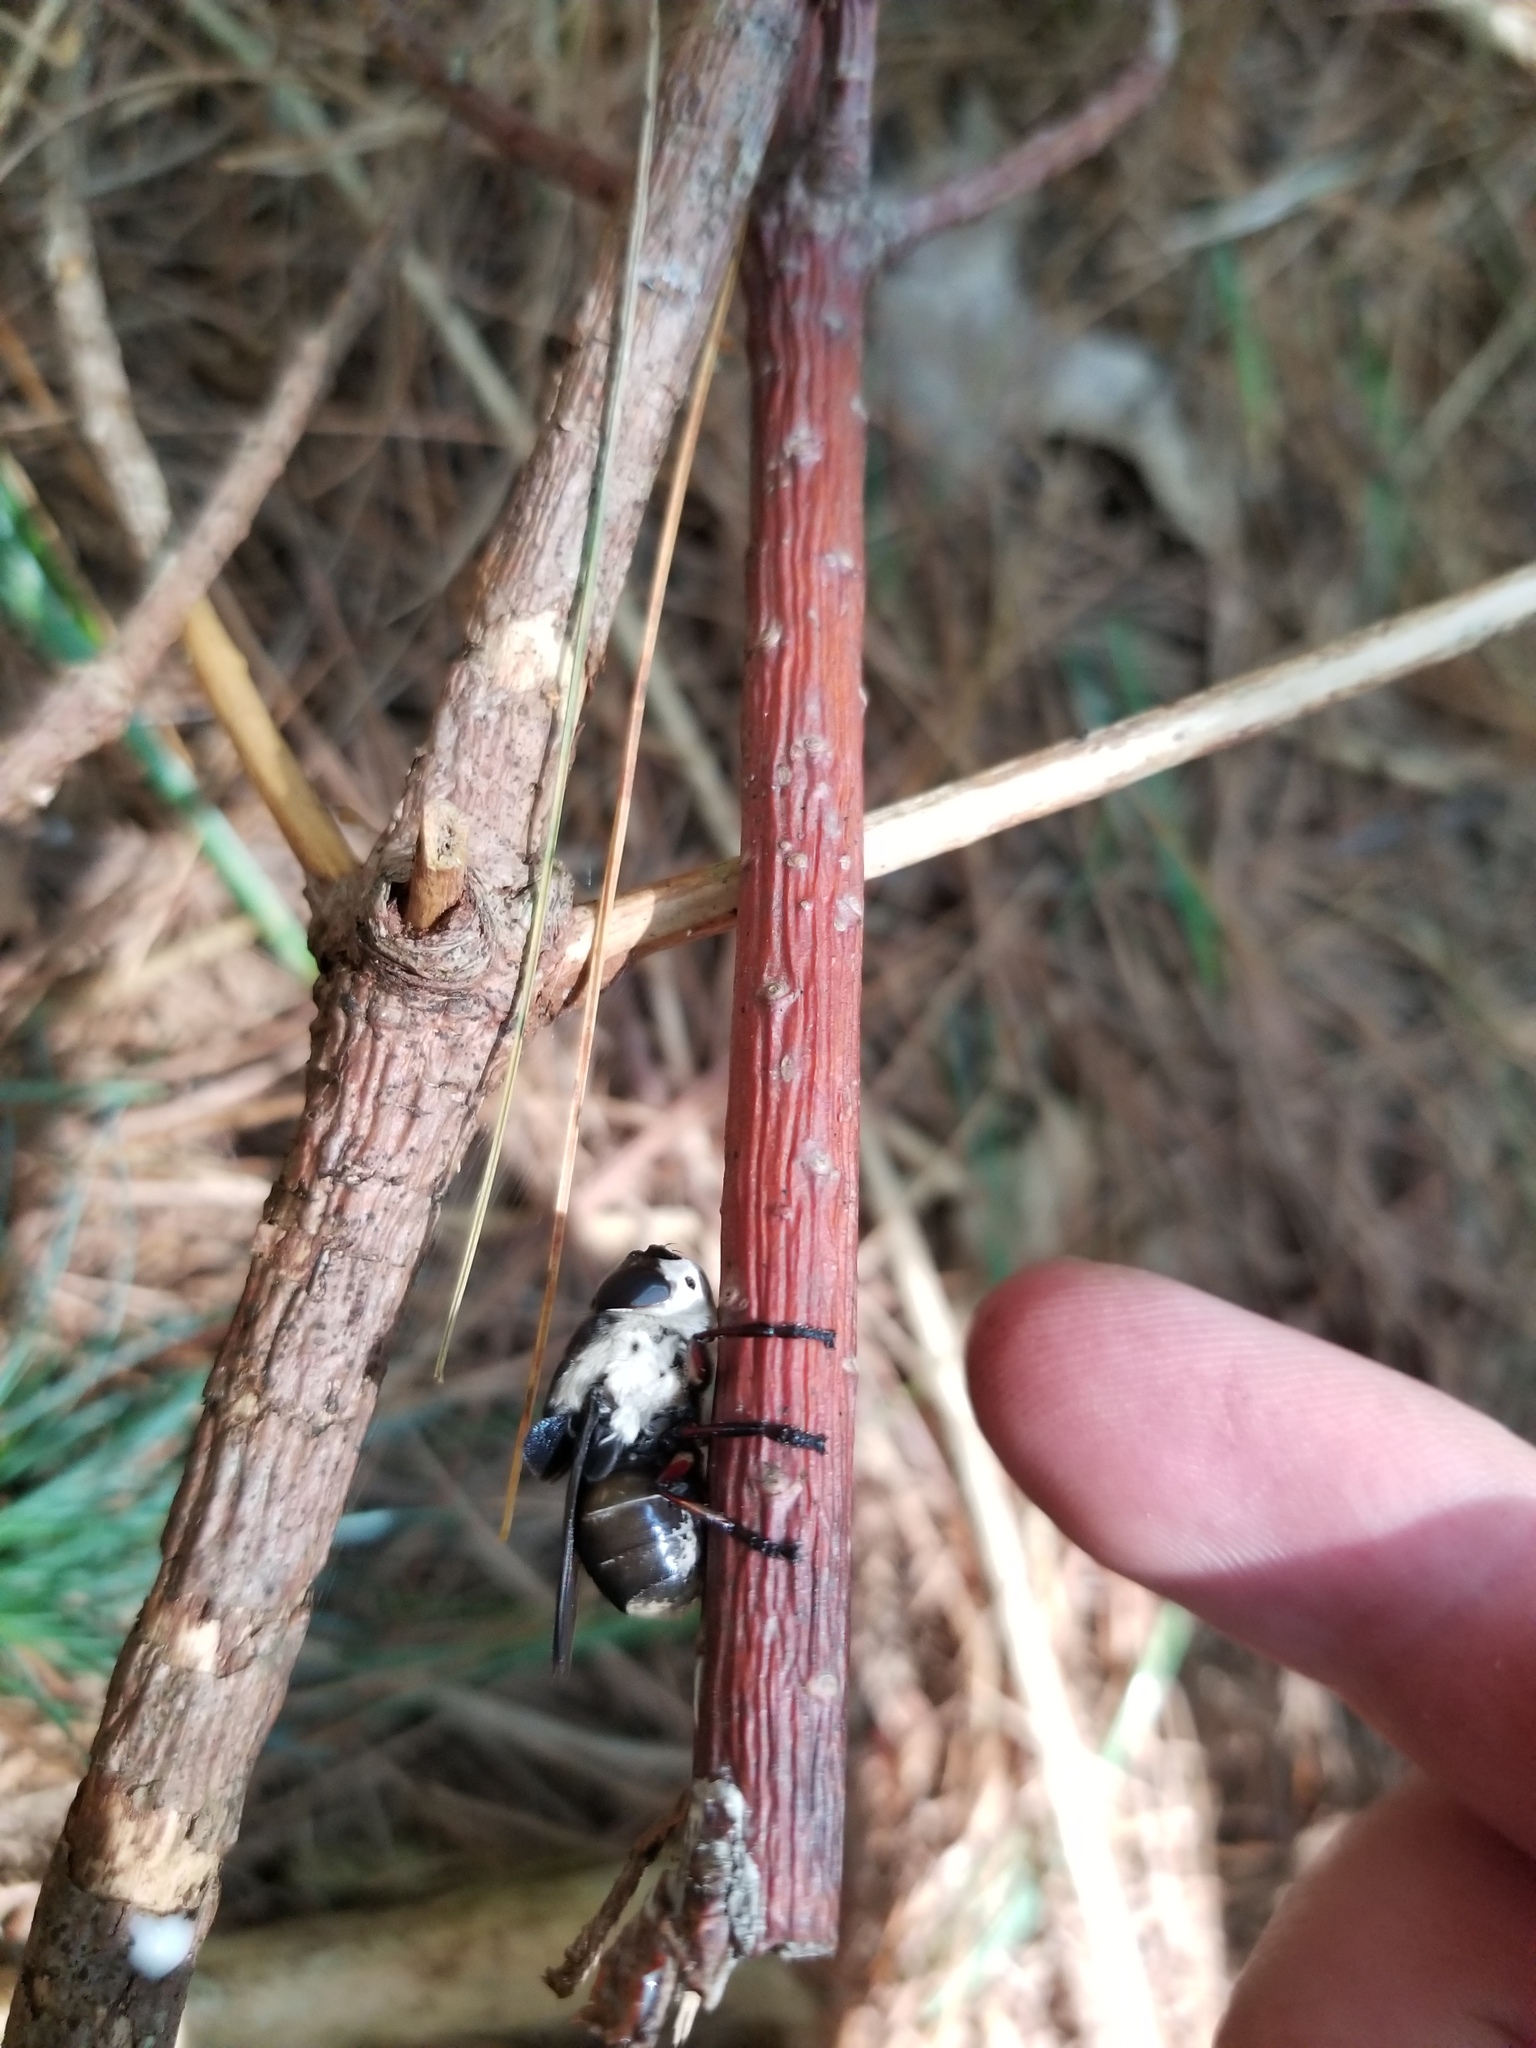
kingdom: Animalia
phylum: Arthropoda
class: Insecta
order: Diptera
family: Oestridae
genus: Cuterebra
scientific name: Cuterebra fontinella
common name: Mouse bot fly
